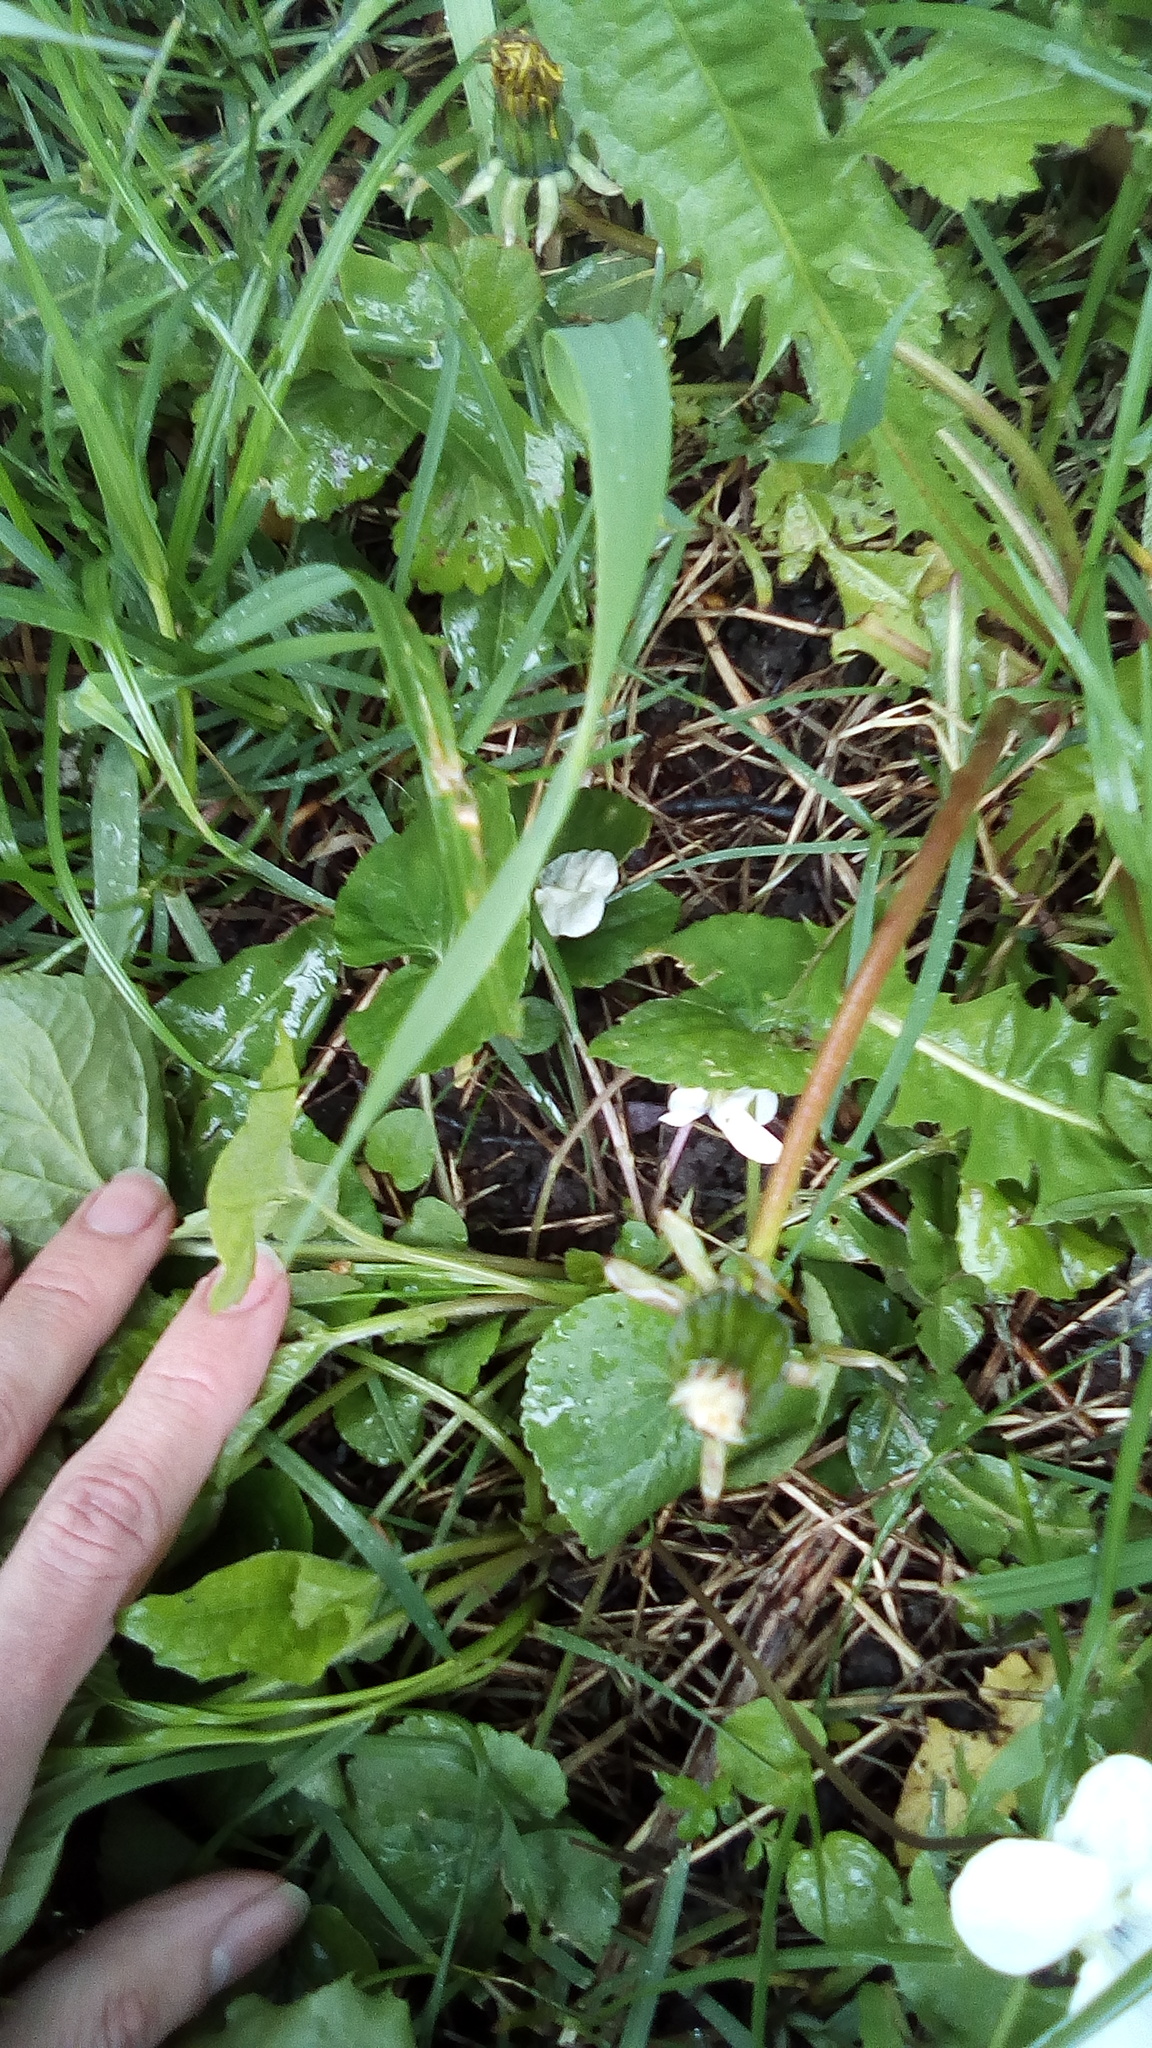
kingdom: Plantae
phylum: Tracheophyta
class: Magnoliopsida
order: Malpighiales
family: Violaceae
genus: Viola
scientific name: Viola sororia
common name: Dooryard violet
